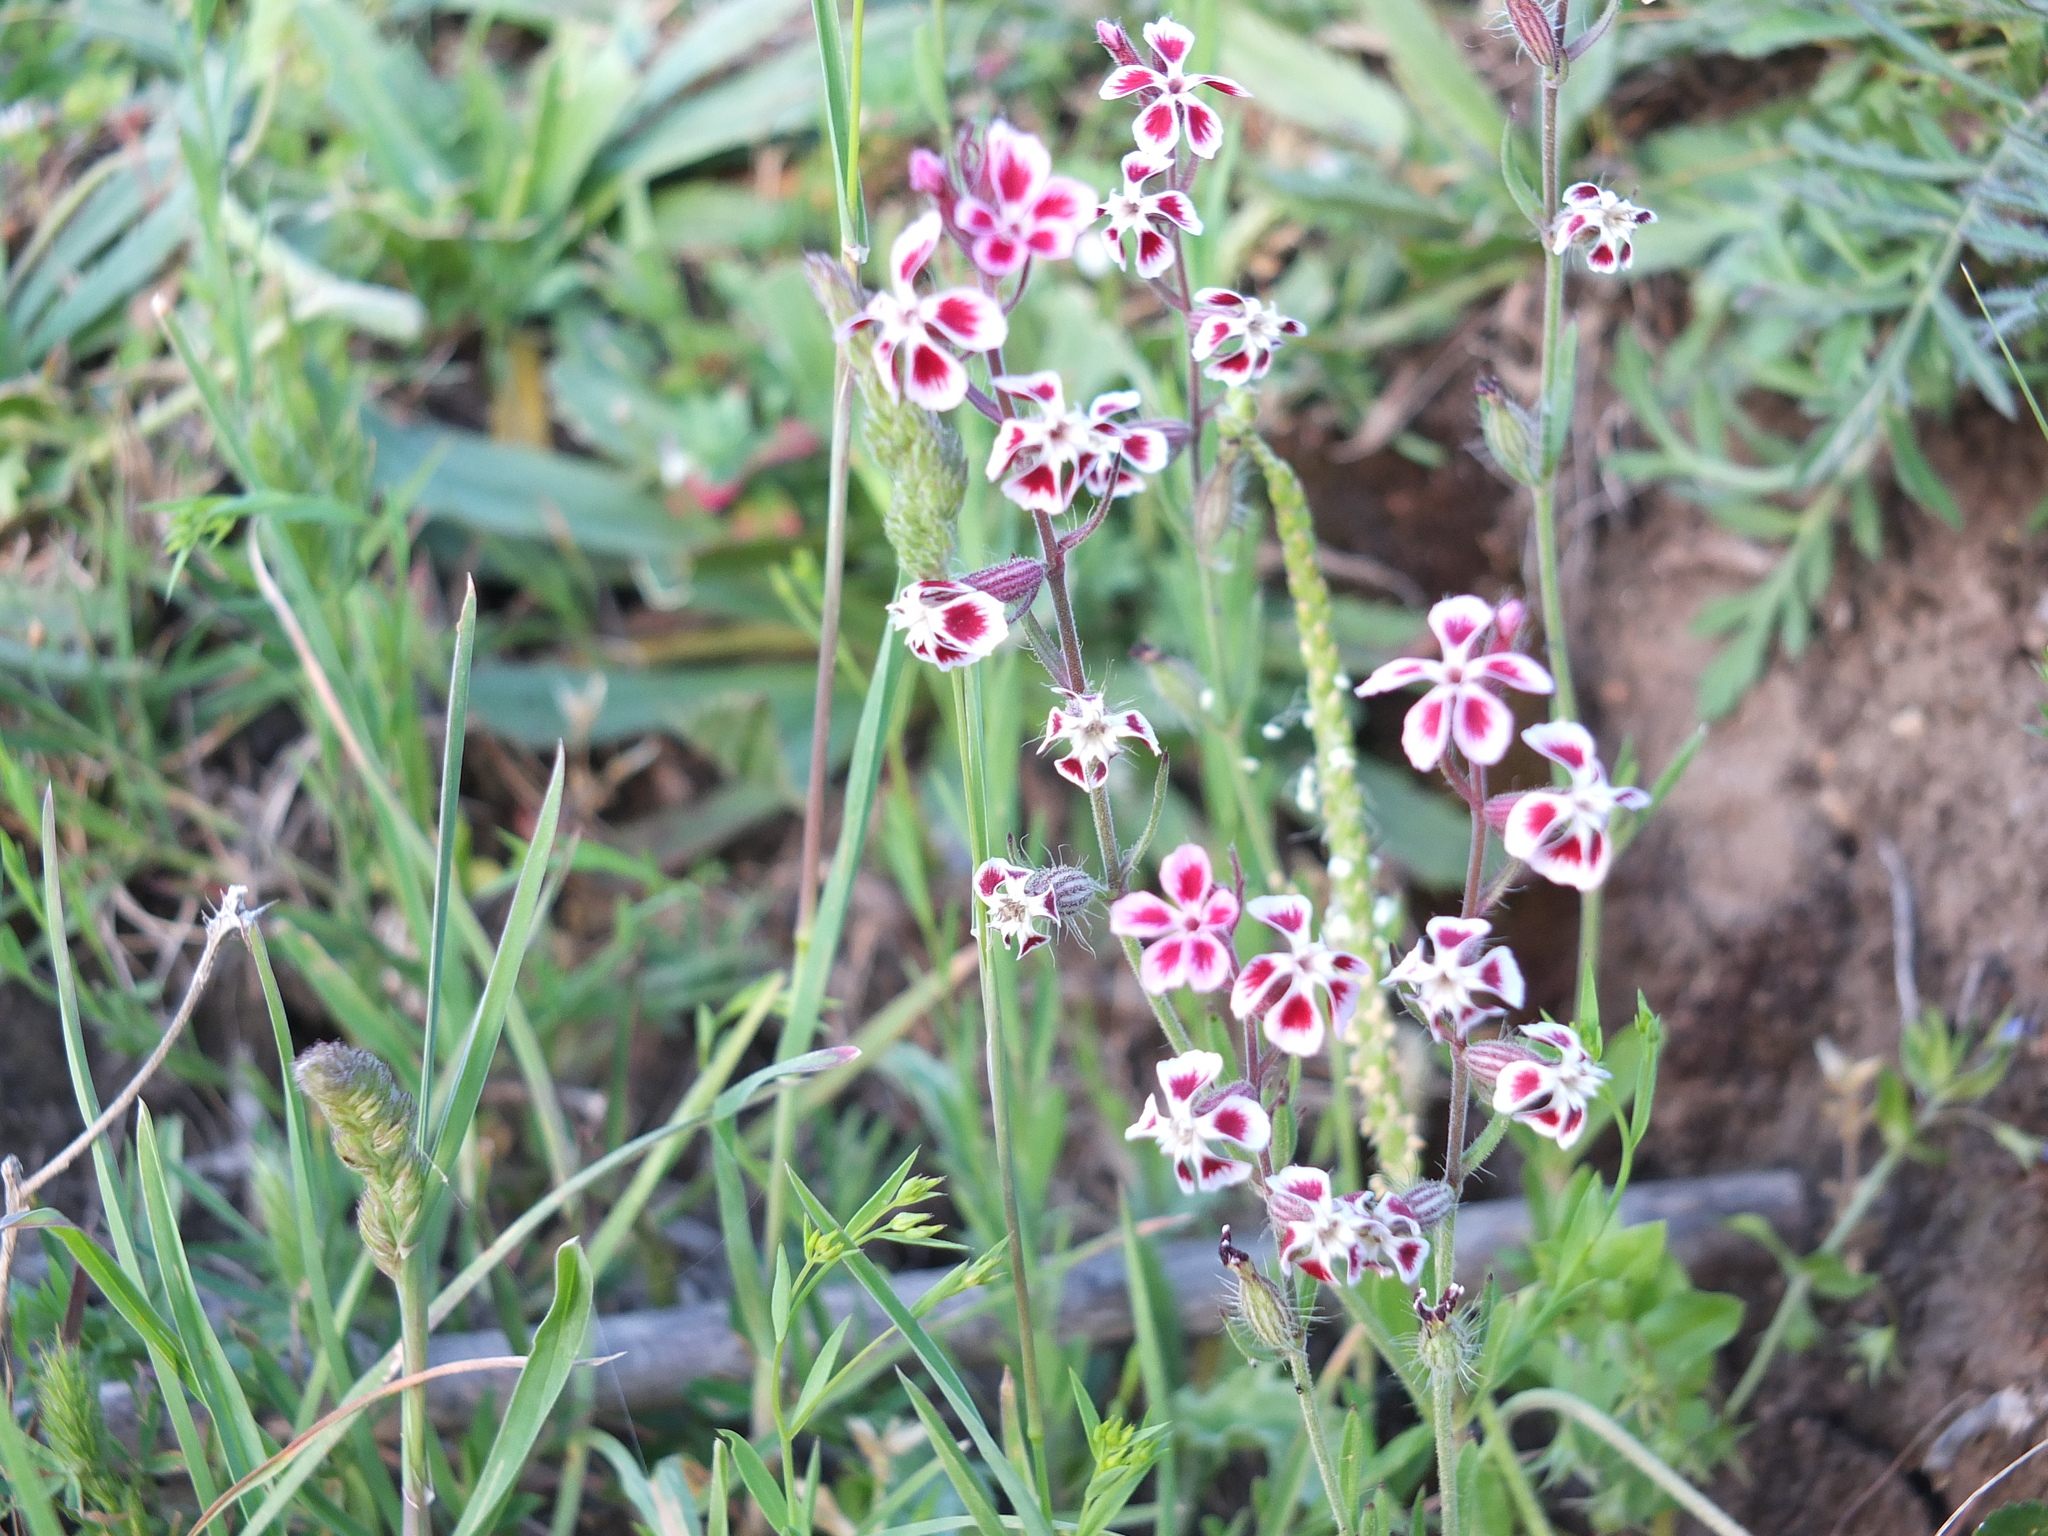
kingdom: Plantae
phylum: Tracheophyta
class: Magnoliopsida
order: Caryophyllales
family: Caryophyllaceae
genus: Silene
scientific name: Silene gallica
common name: Small-flowered catchfly
